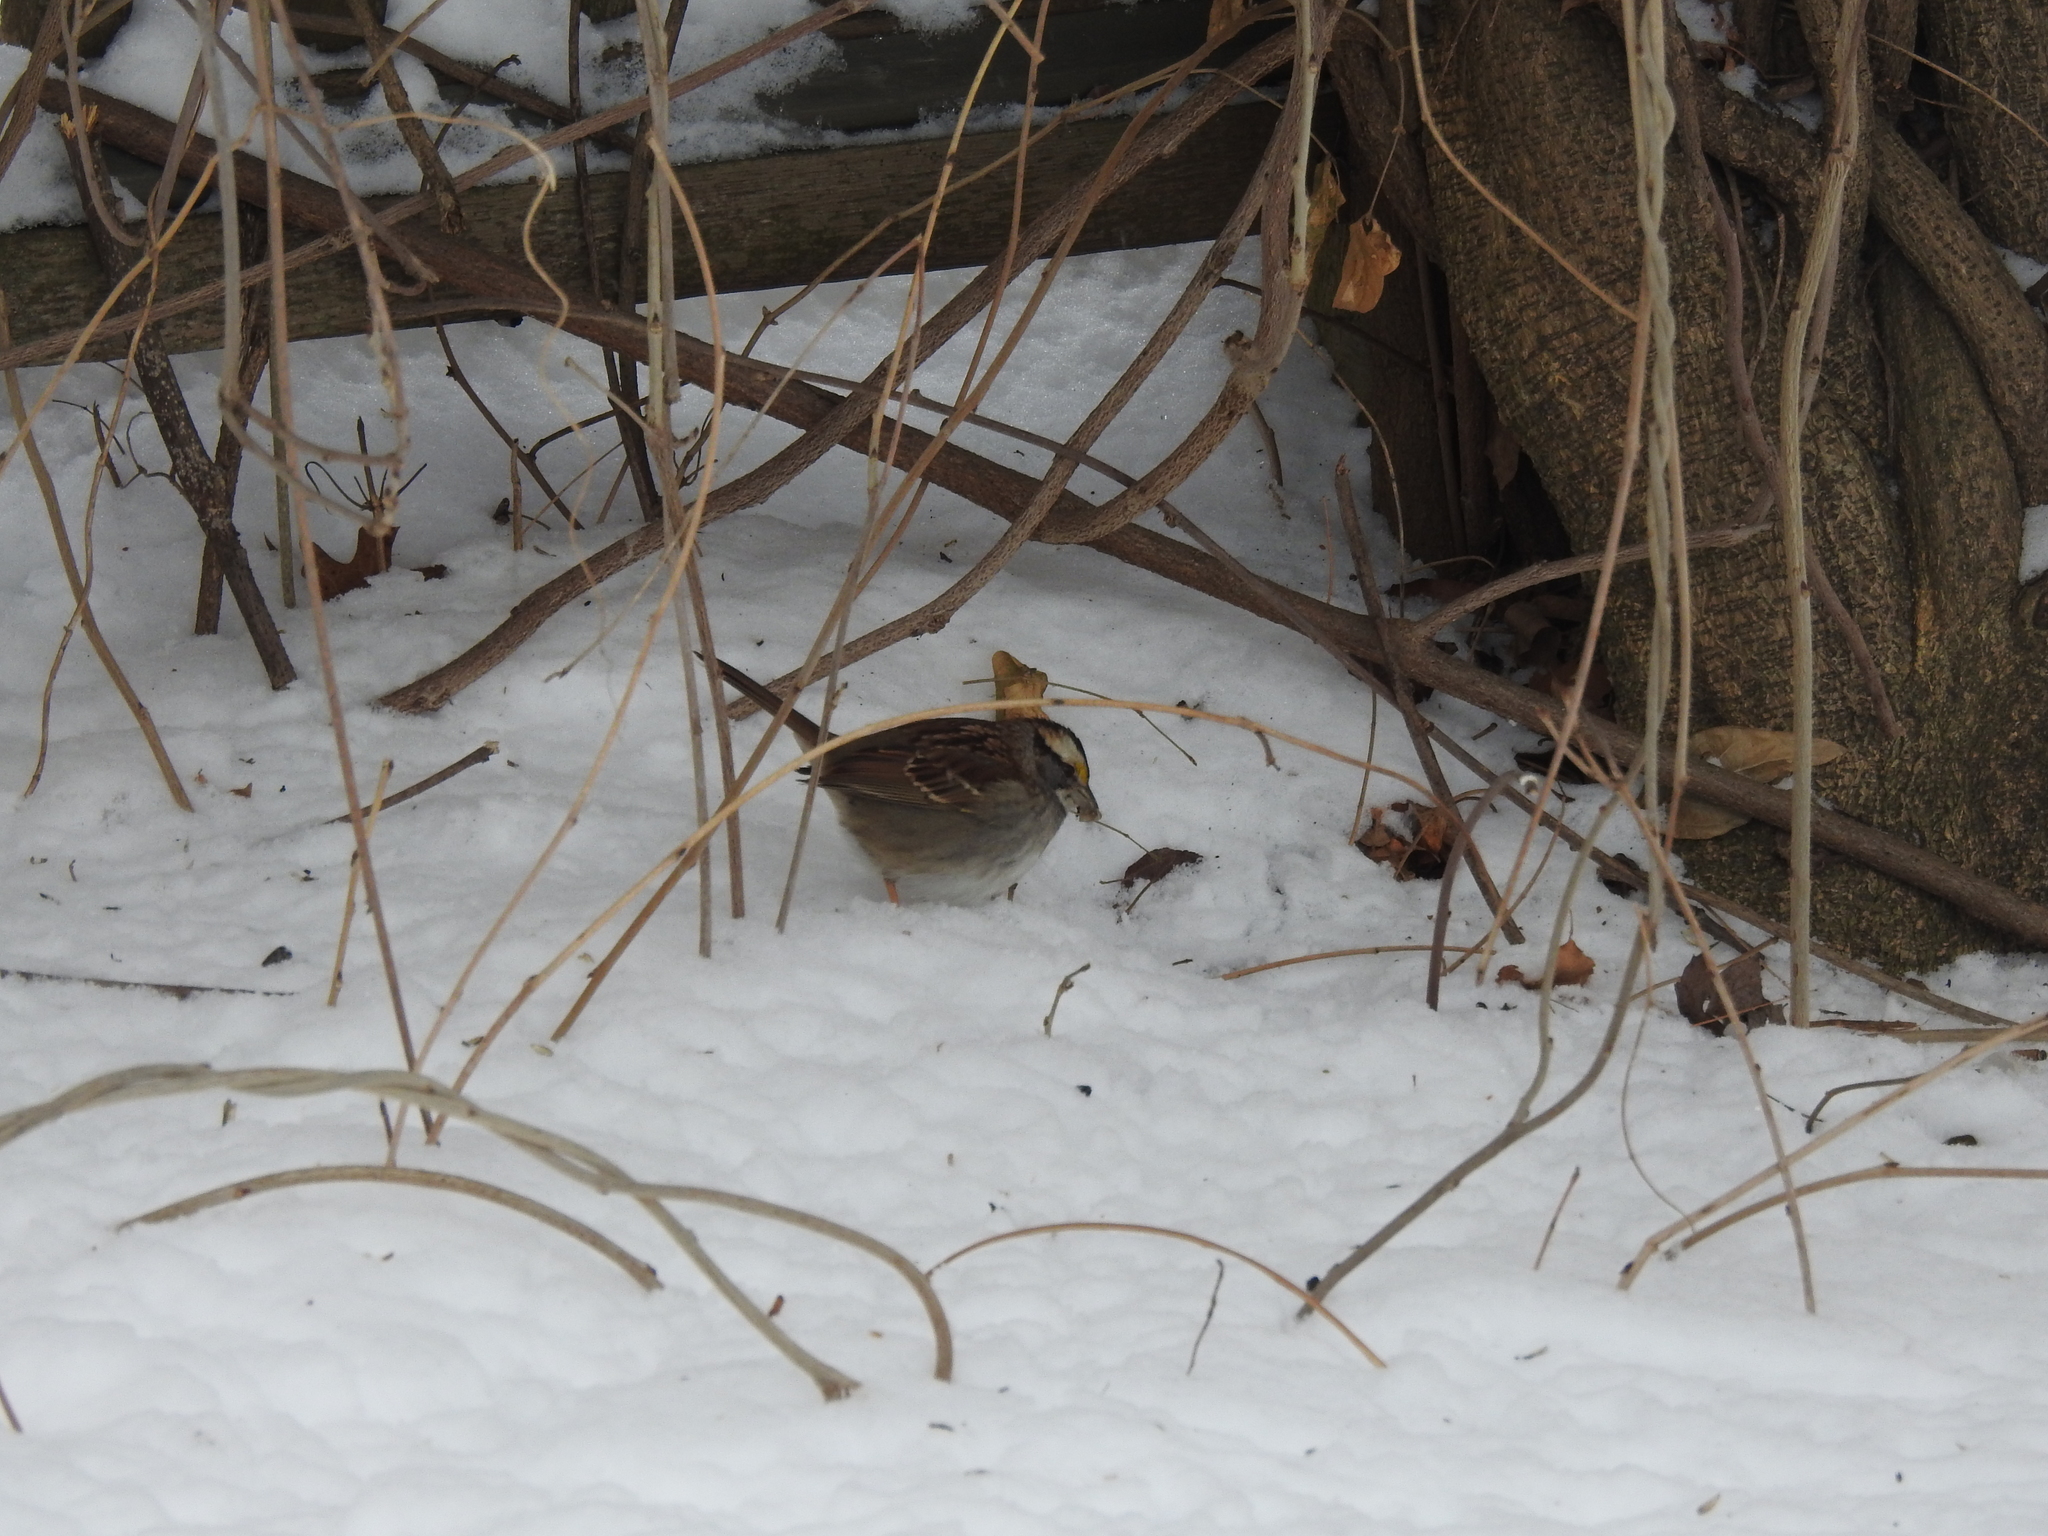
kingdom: Animalia
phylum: Chordata
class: Aves
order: Passeriformes
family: Passerellidae
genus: Zonotrichia
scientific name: Zonotrichia albicollis
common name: White-throated sparrow
